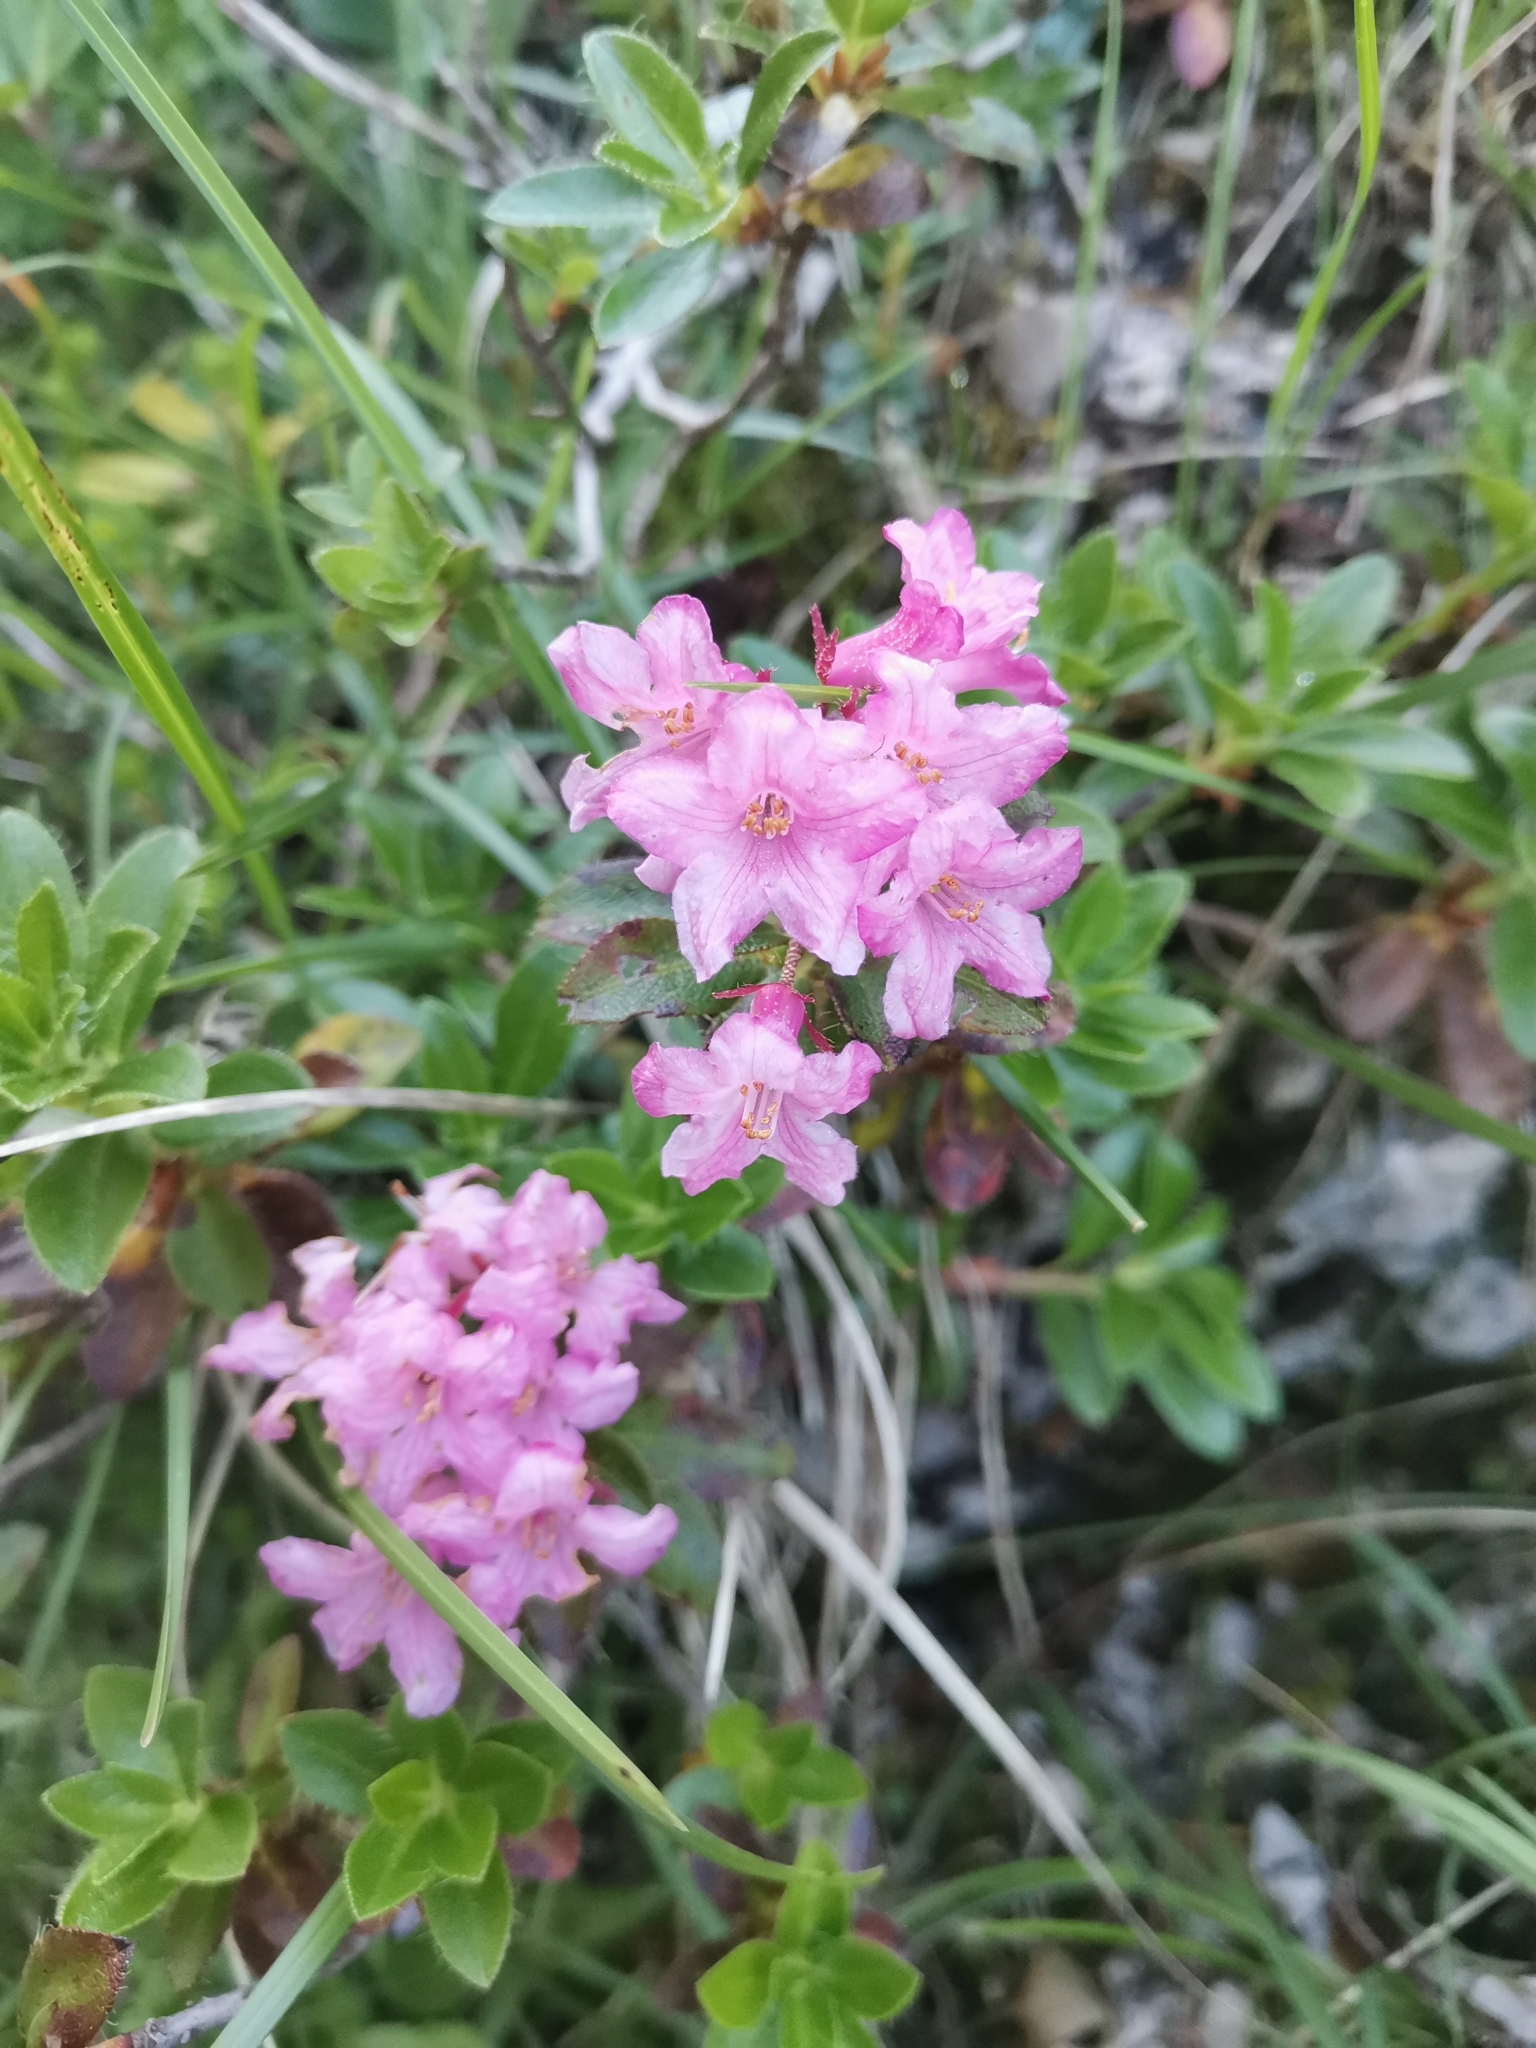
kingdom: Plantae
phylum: Tracheophyta
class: Magnoliopsida
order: Ericales
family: Ericaceae
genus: Rhododendron
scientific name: Rhododendron hirsutum
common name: Hairy alpenrose
